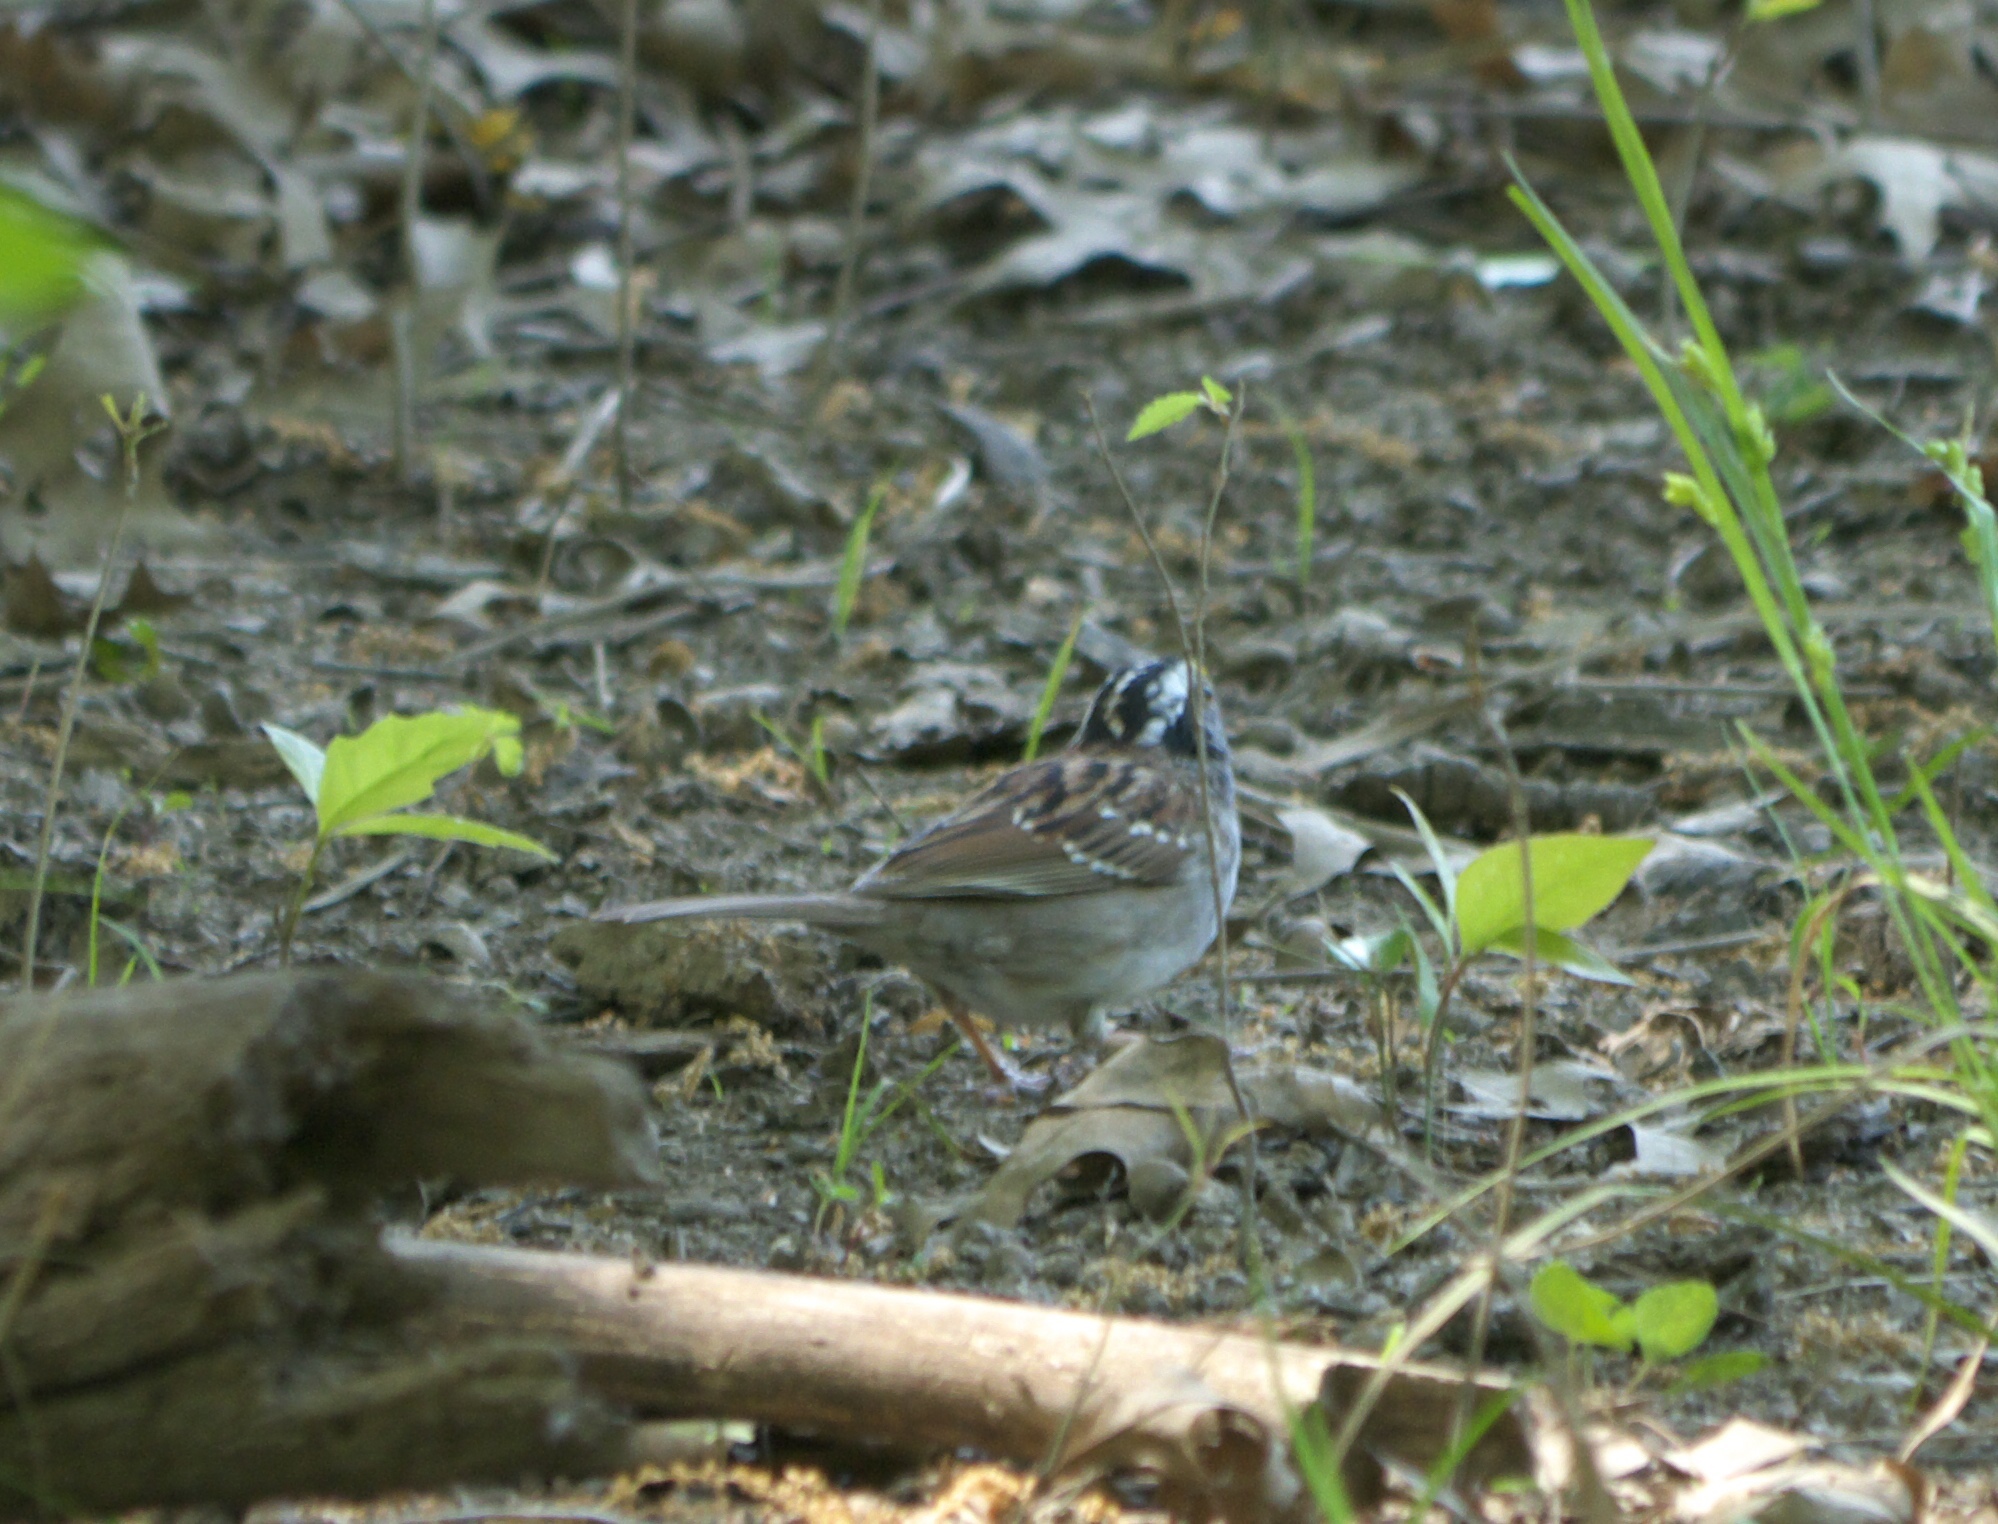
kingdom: Animalia
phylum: Chordata
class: Aves
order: Passeriformes
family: Passerellidae
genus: Zonotrichia
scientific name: Zonotrichia albicollis
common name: White-throated sparrow
